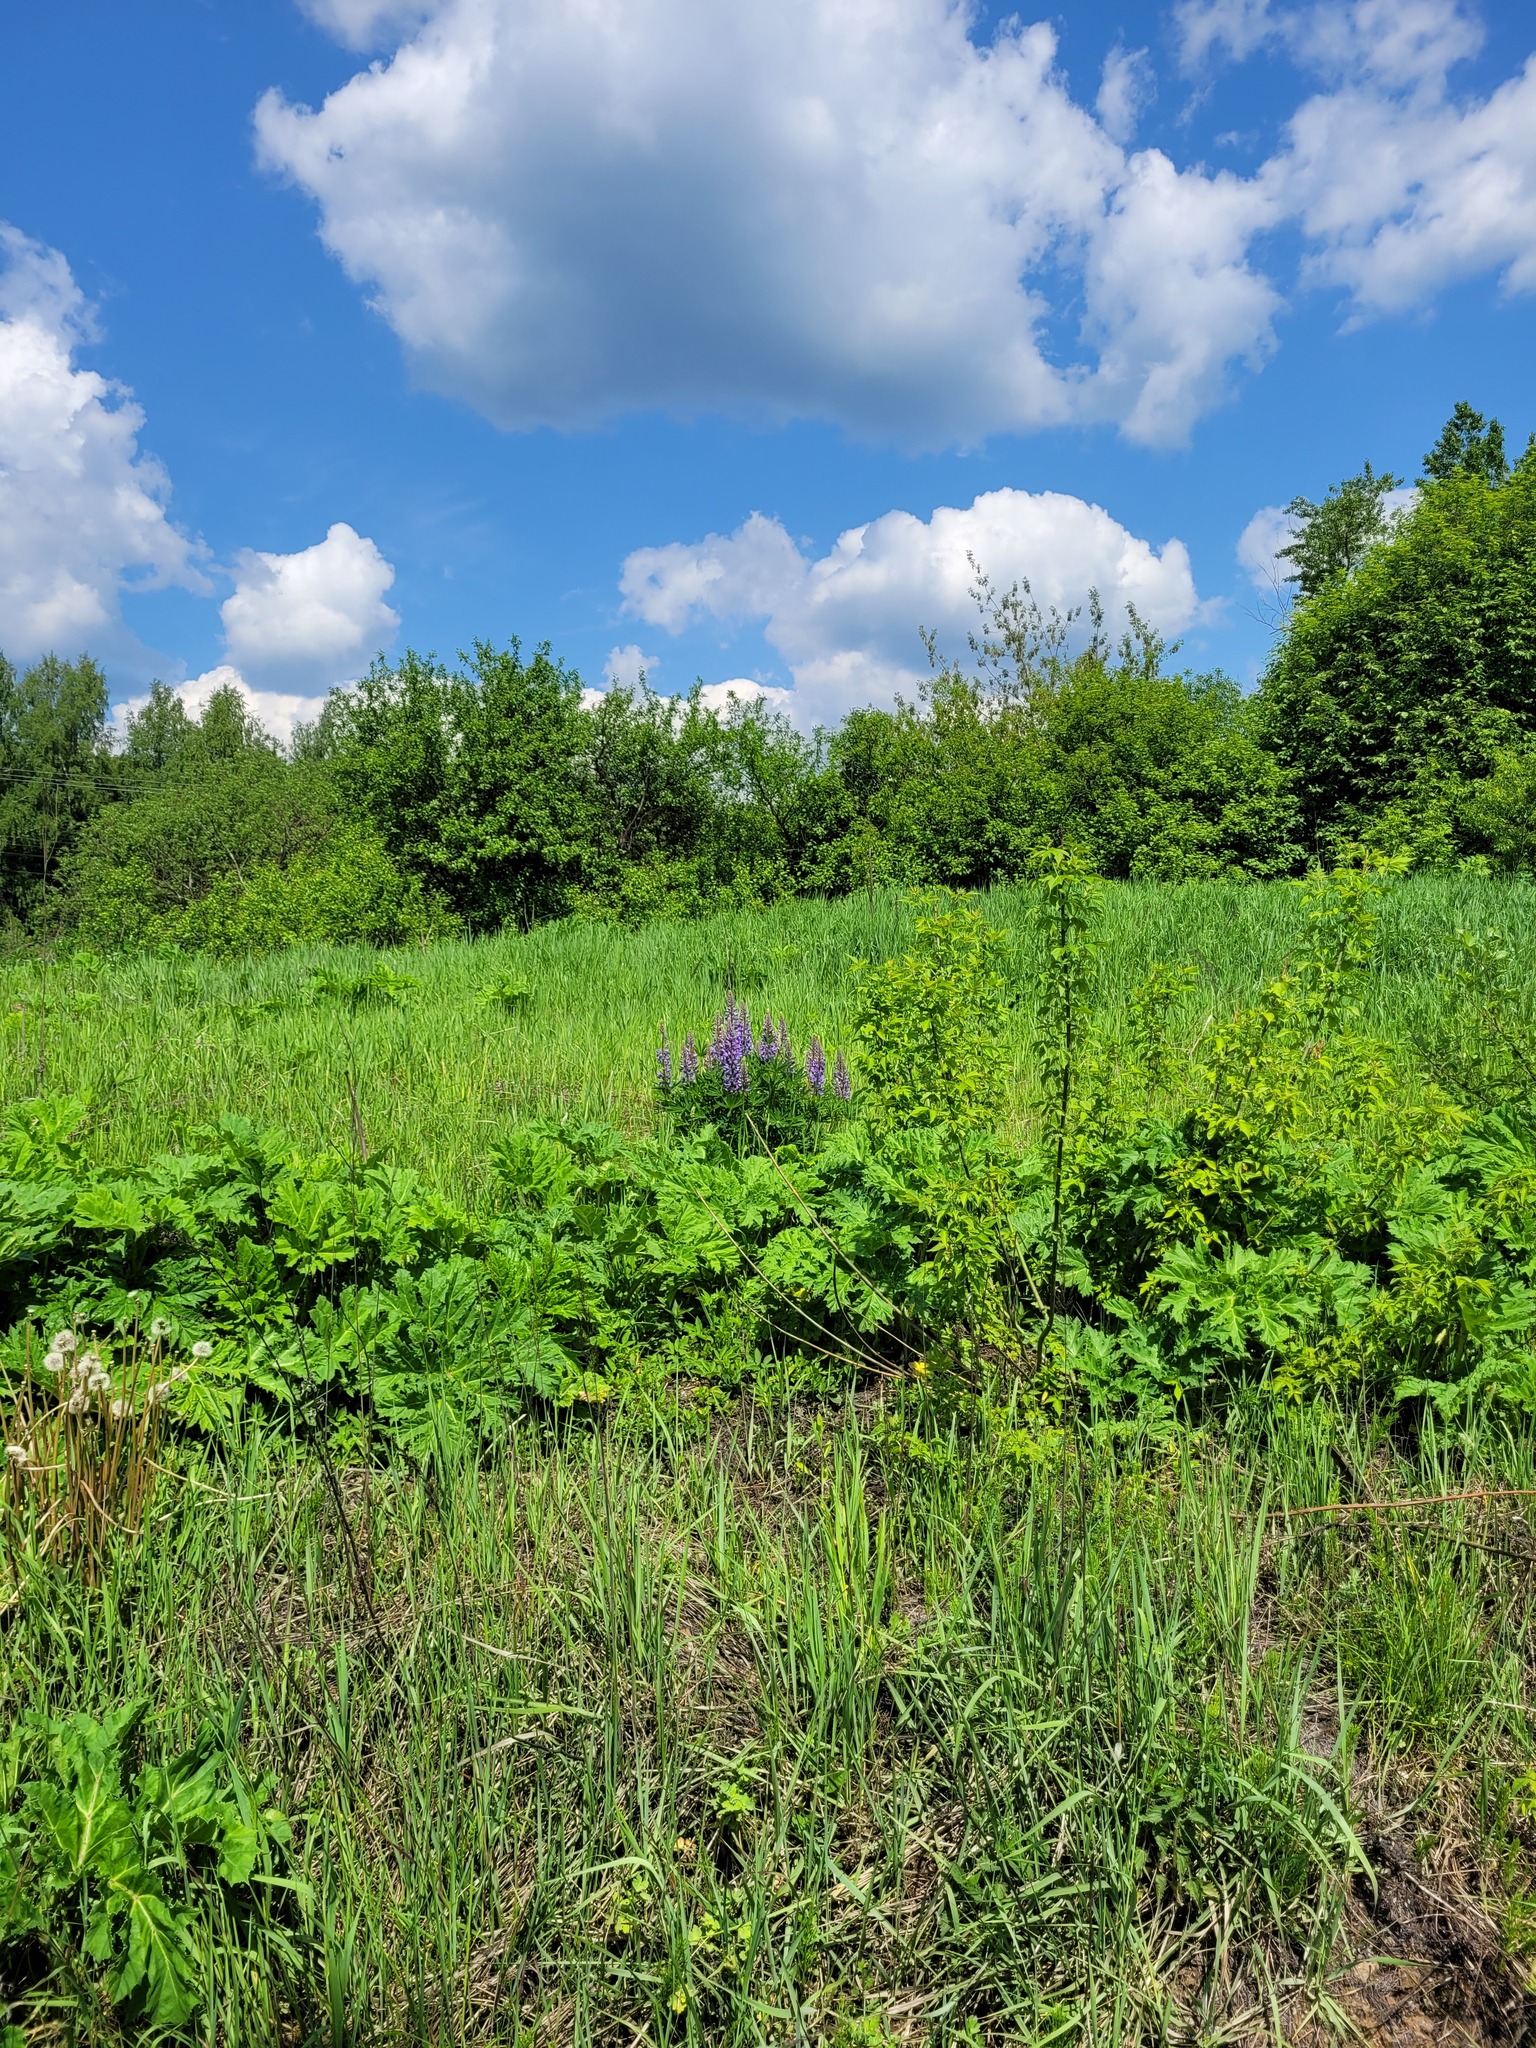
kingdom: Plantae
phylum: Tracheophyta
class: Magnoliopsida
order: Fabales
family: Fabaceae
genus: Lupinus
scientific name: Lupinus polyphyllus
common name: Garden lupin
